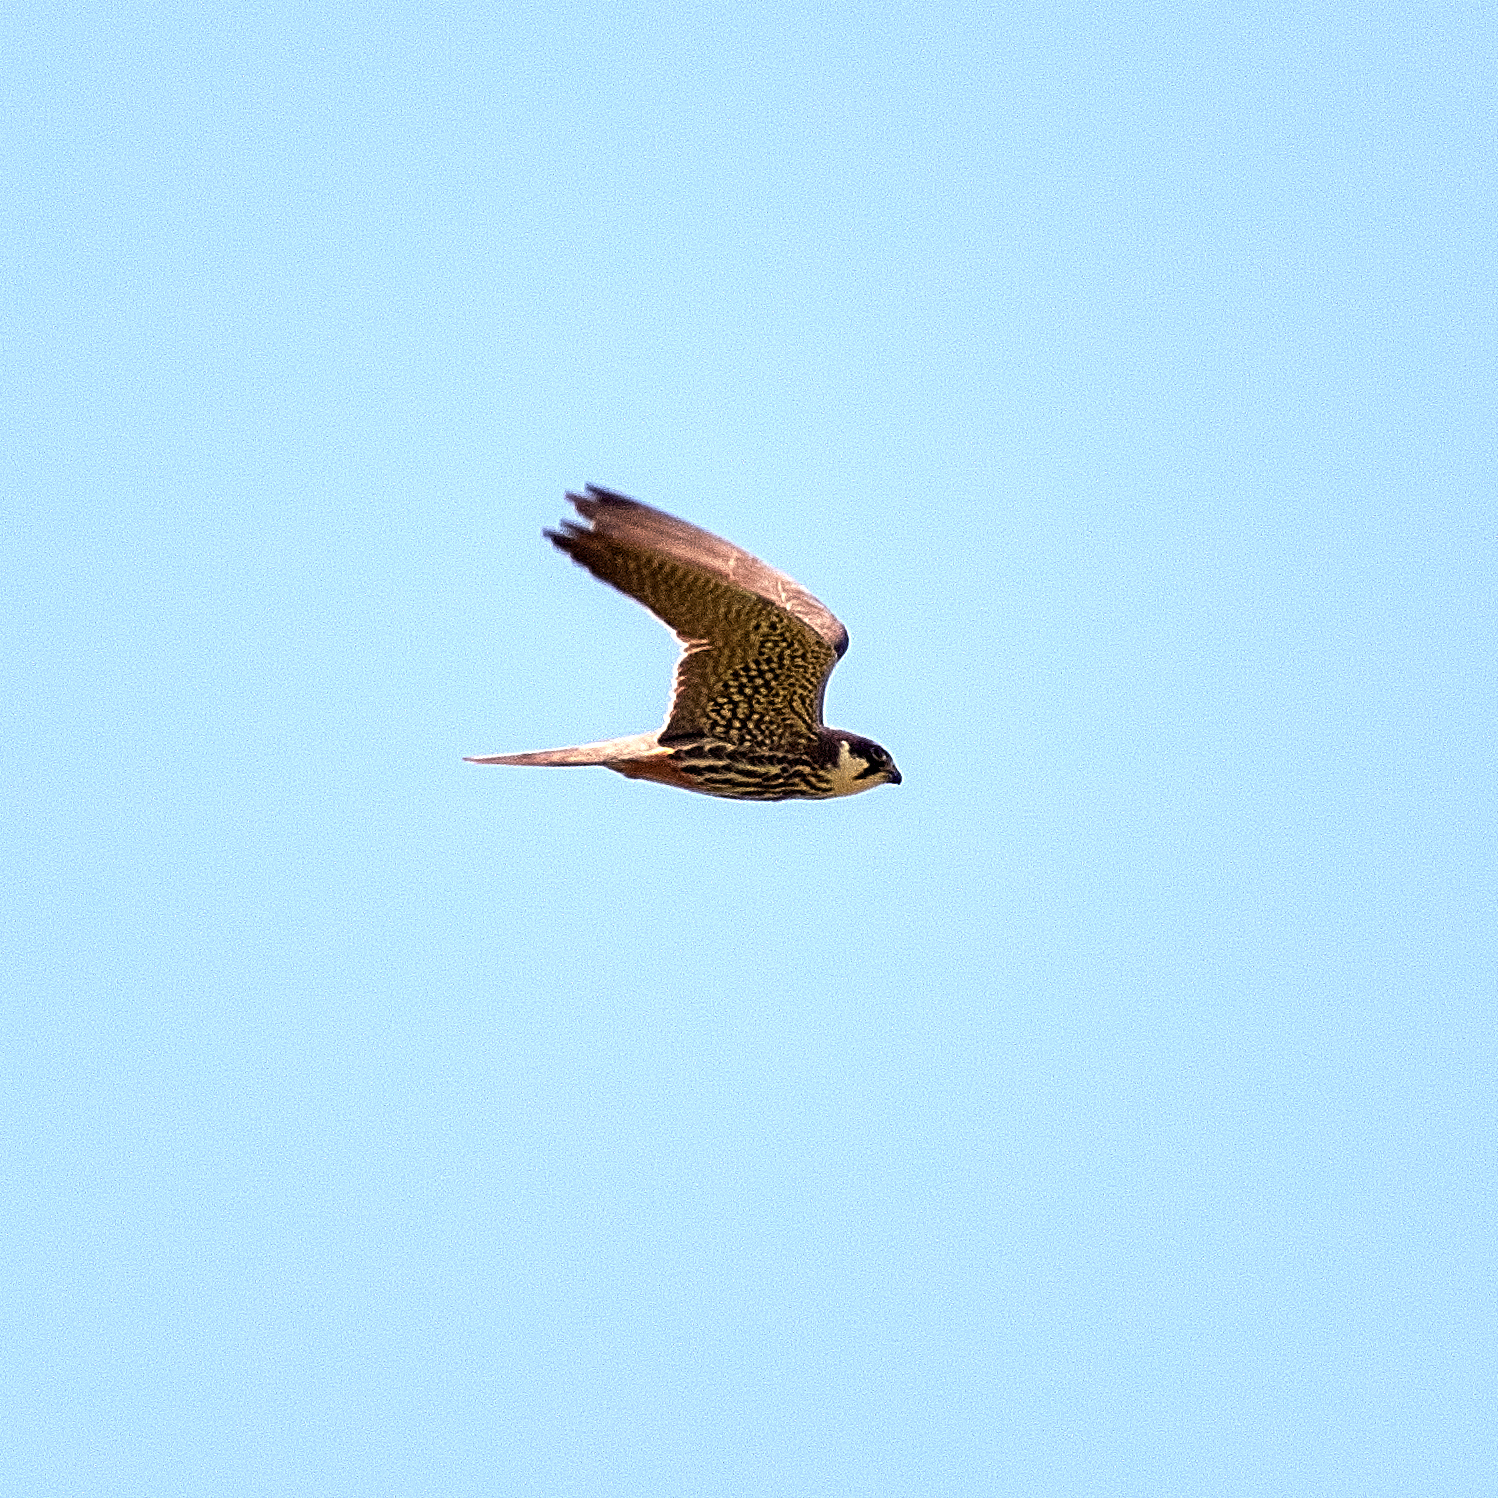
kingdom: Animalia
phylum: Chordata
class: Aves
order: Falconiformes
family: Falconidae
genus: Falco
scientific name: Falco subbuteo
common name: Eurasian hobby
